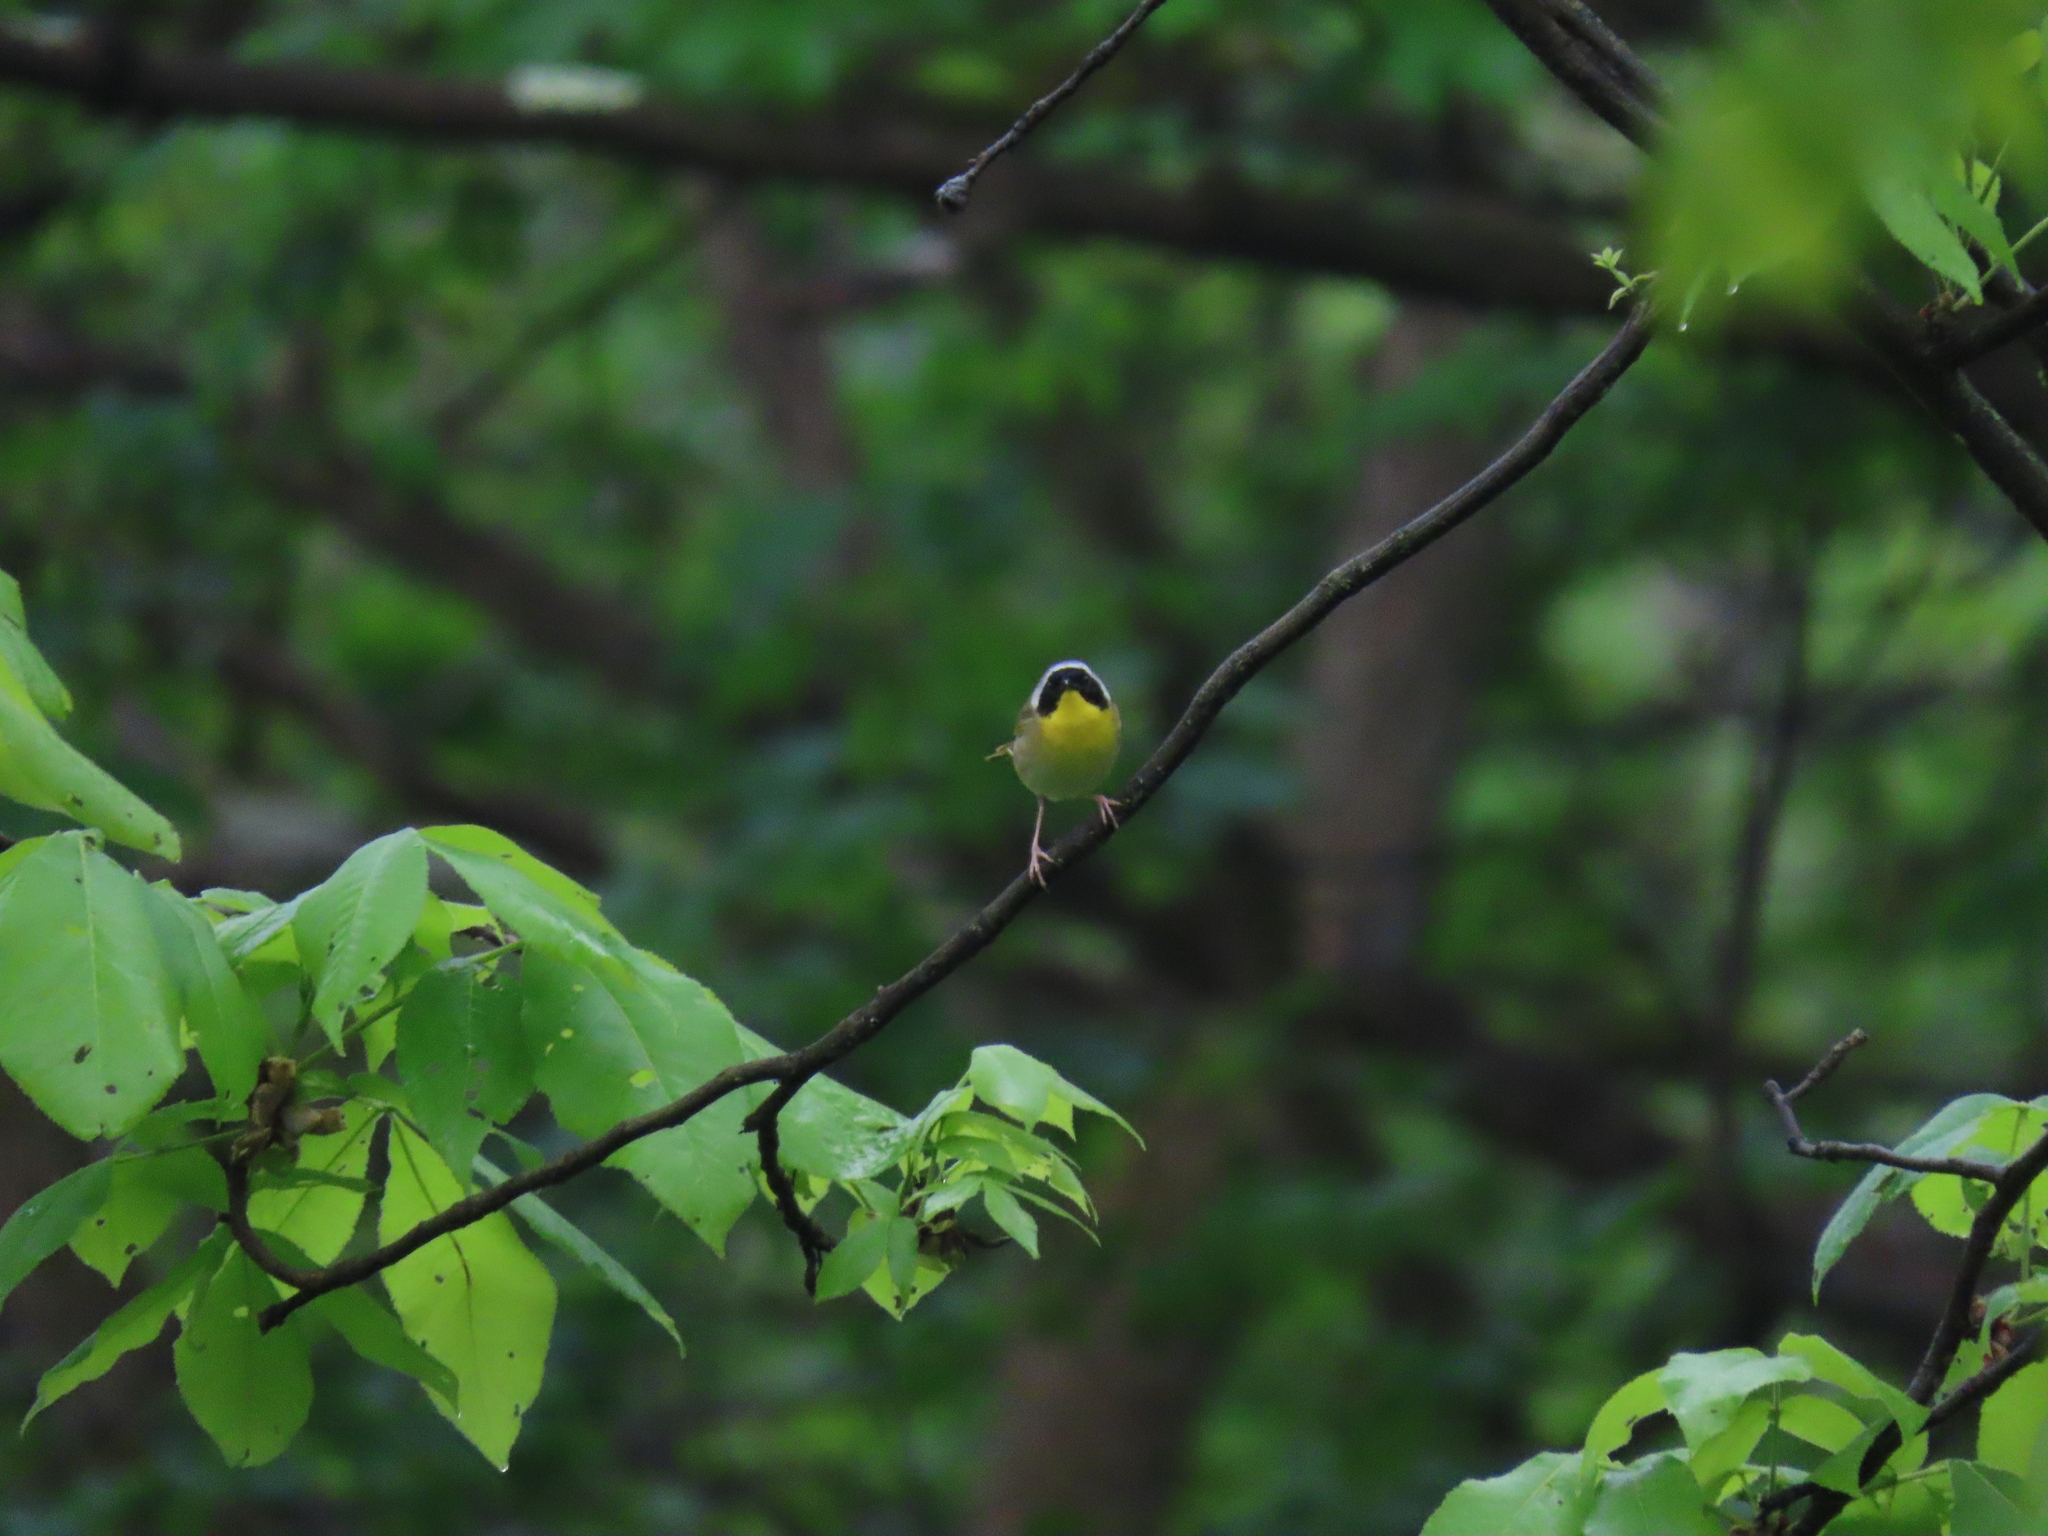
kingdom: Animalia
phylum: Chordata
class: Aves
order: Passeriformes
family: Parulidae
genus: Geothlypis
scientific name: Geothlypis trichas
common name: Common yellowthroat
